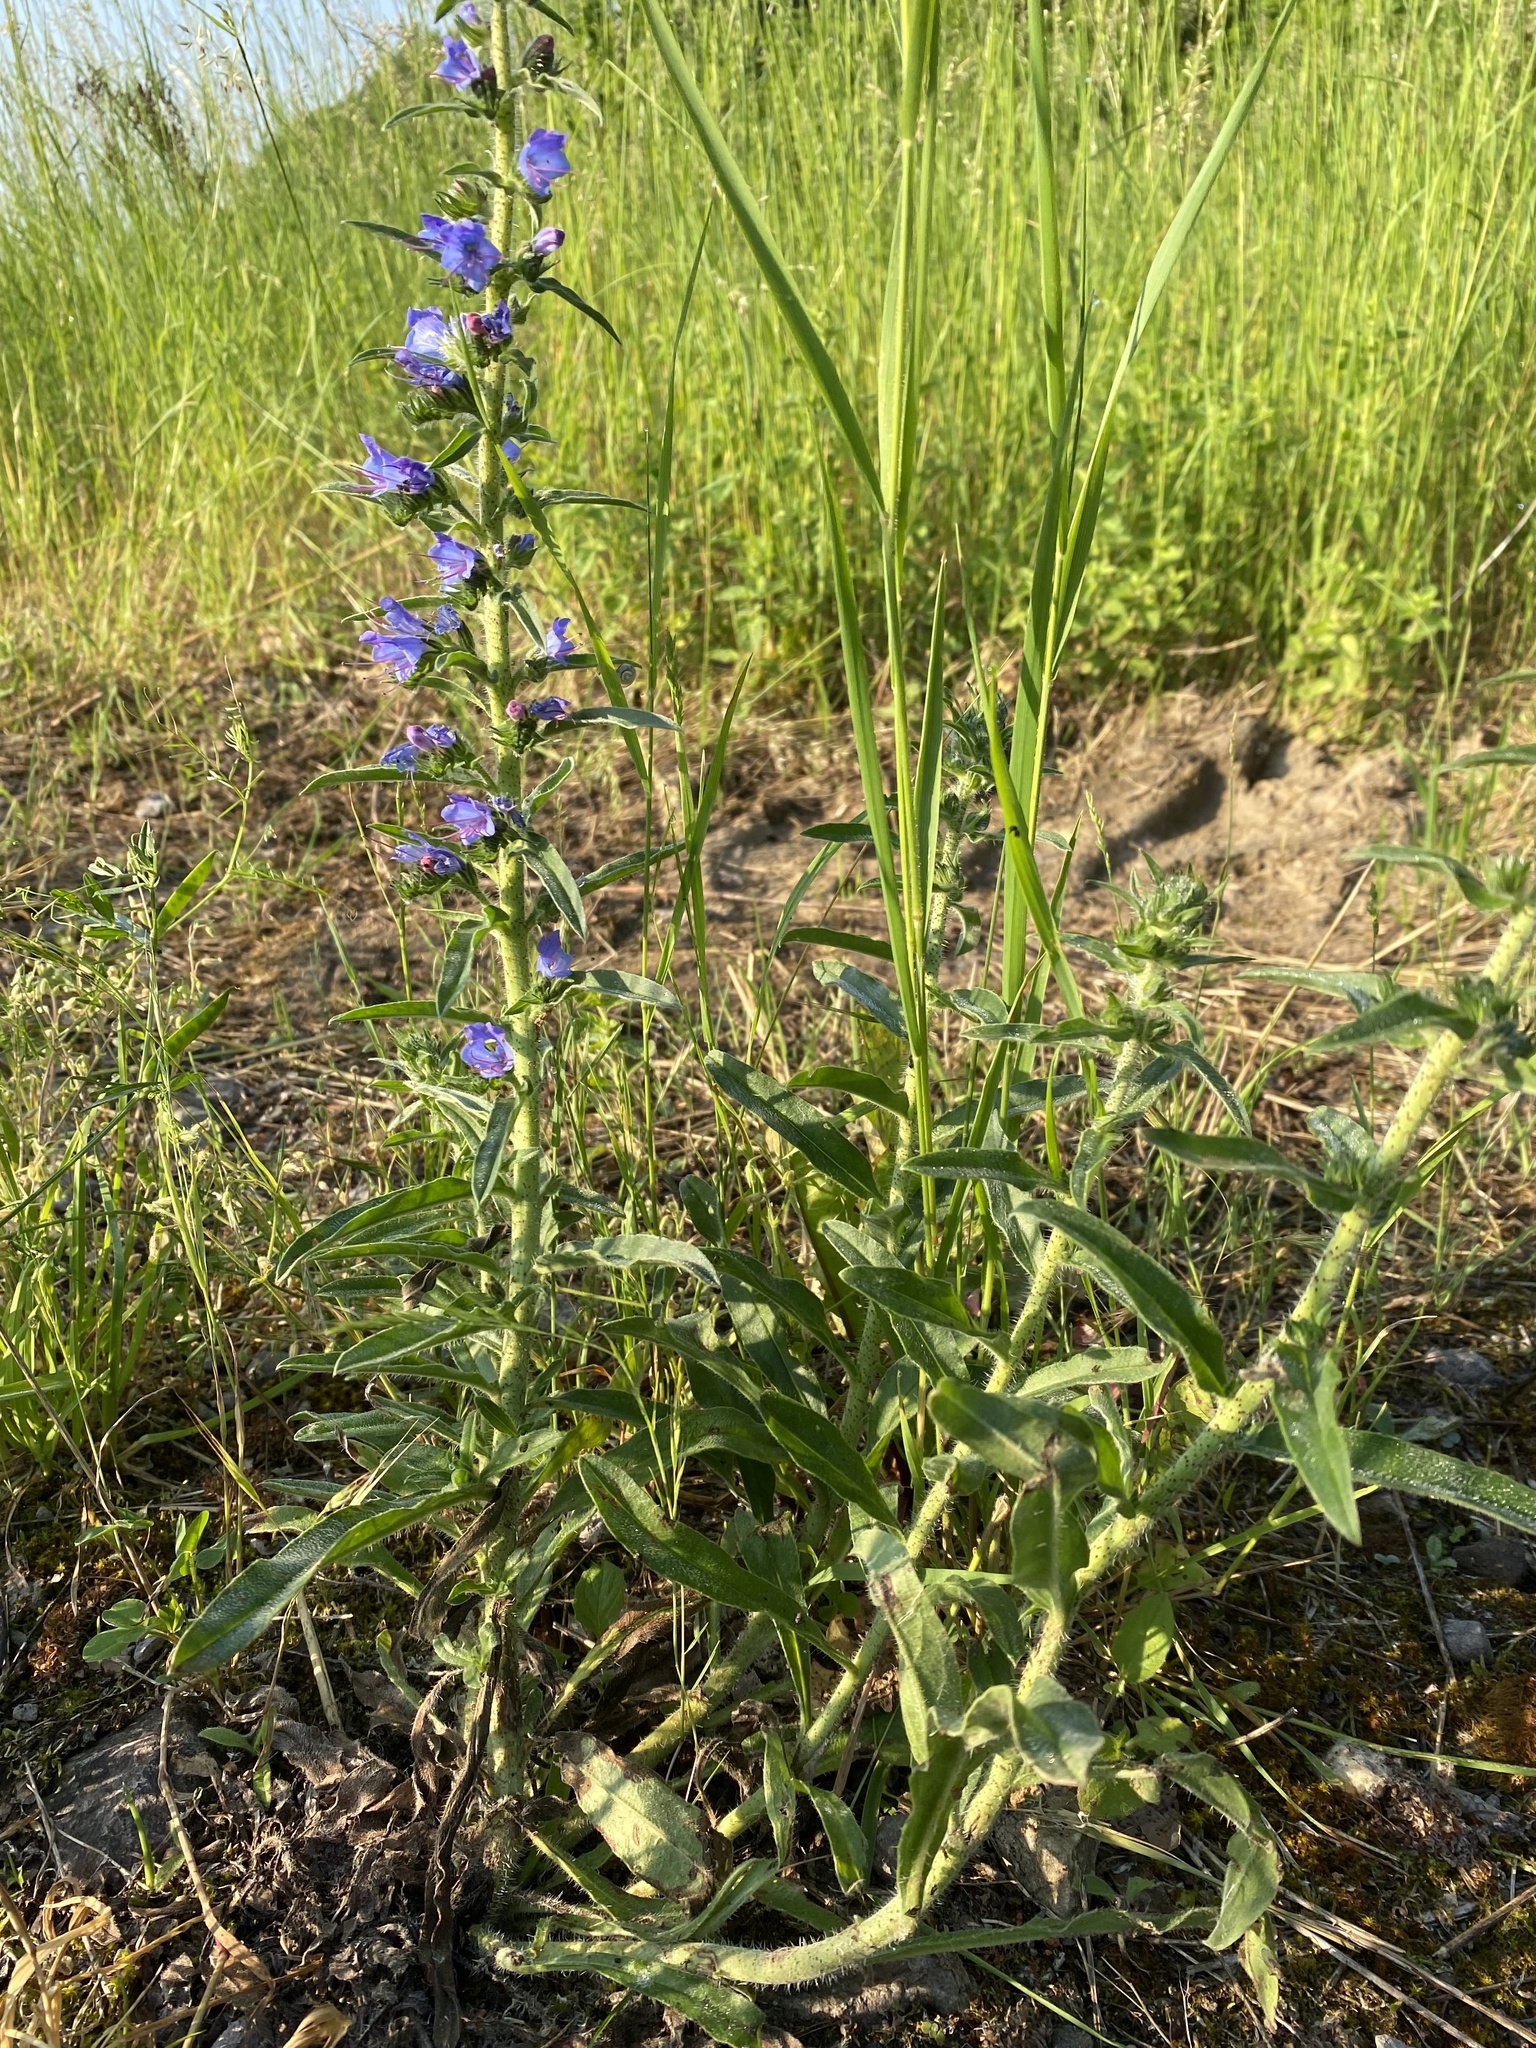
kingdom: Plantae
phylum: Tracheophyta
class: Magnoliopsida
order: Boraginales
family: Boraginaceae
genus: Echium
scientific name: Echium vulgare
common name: Common viper's bugloss
